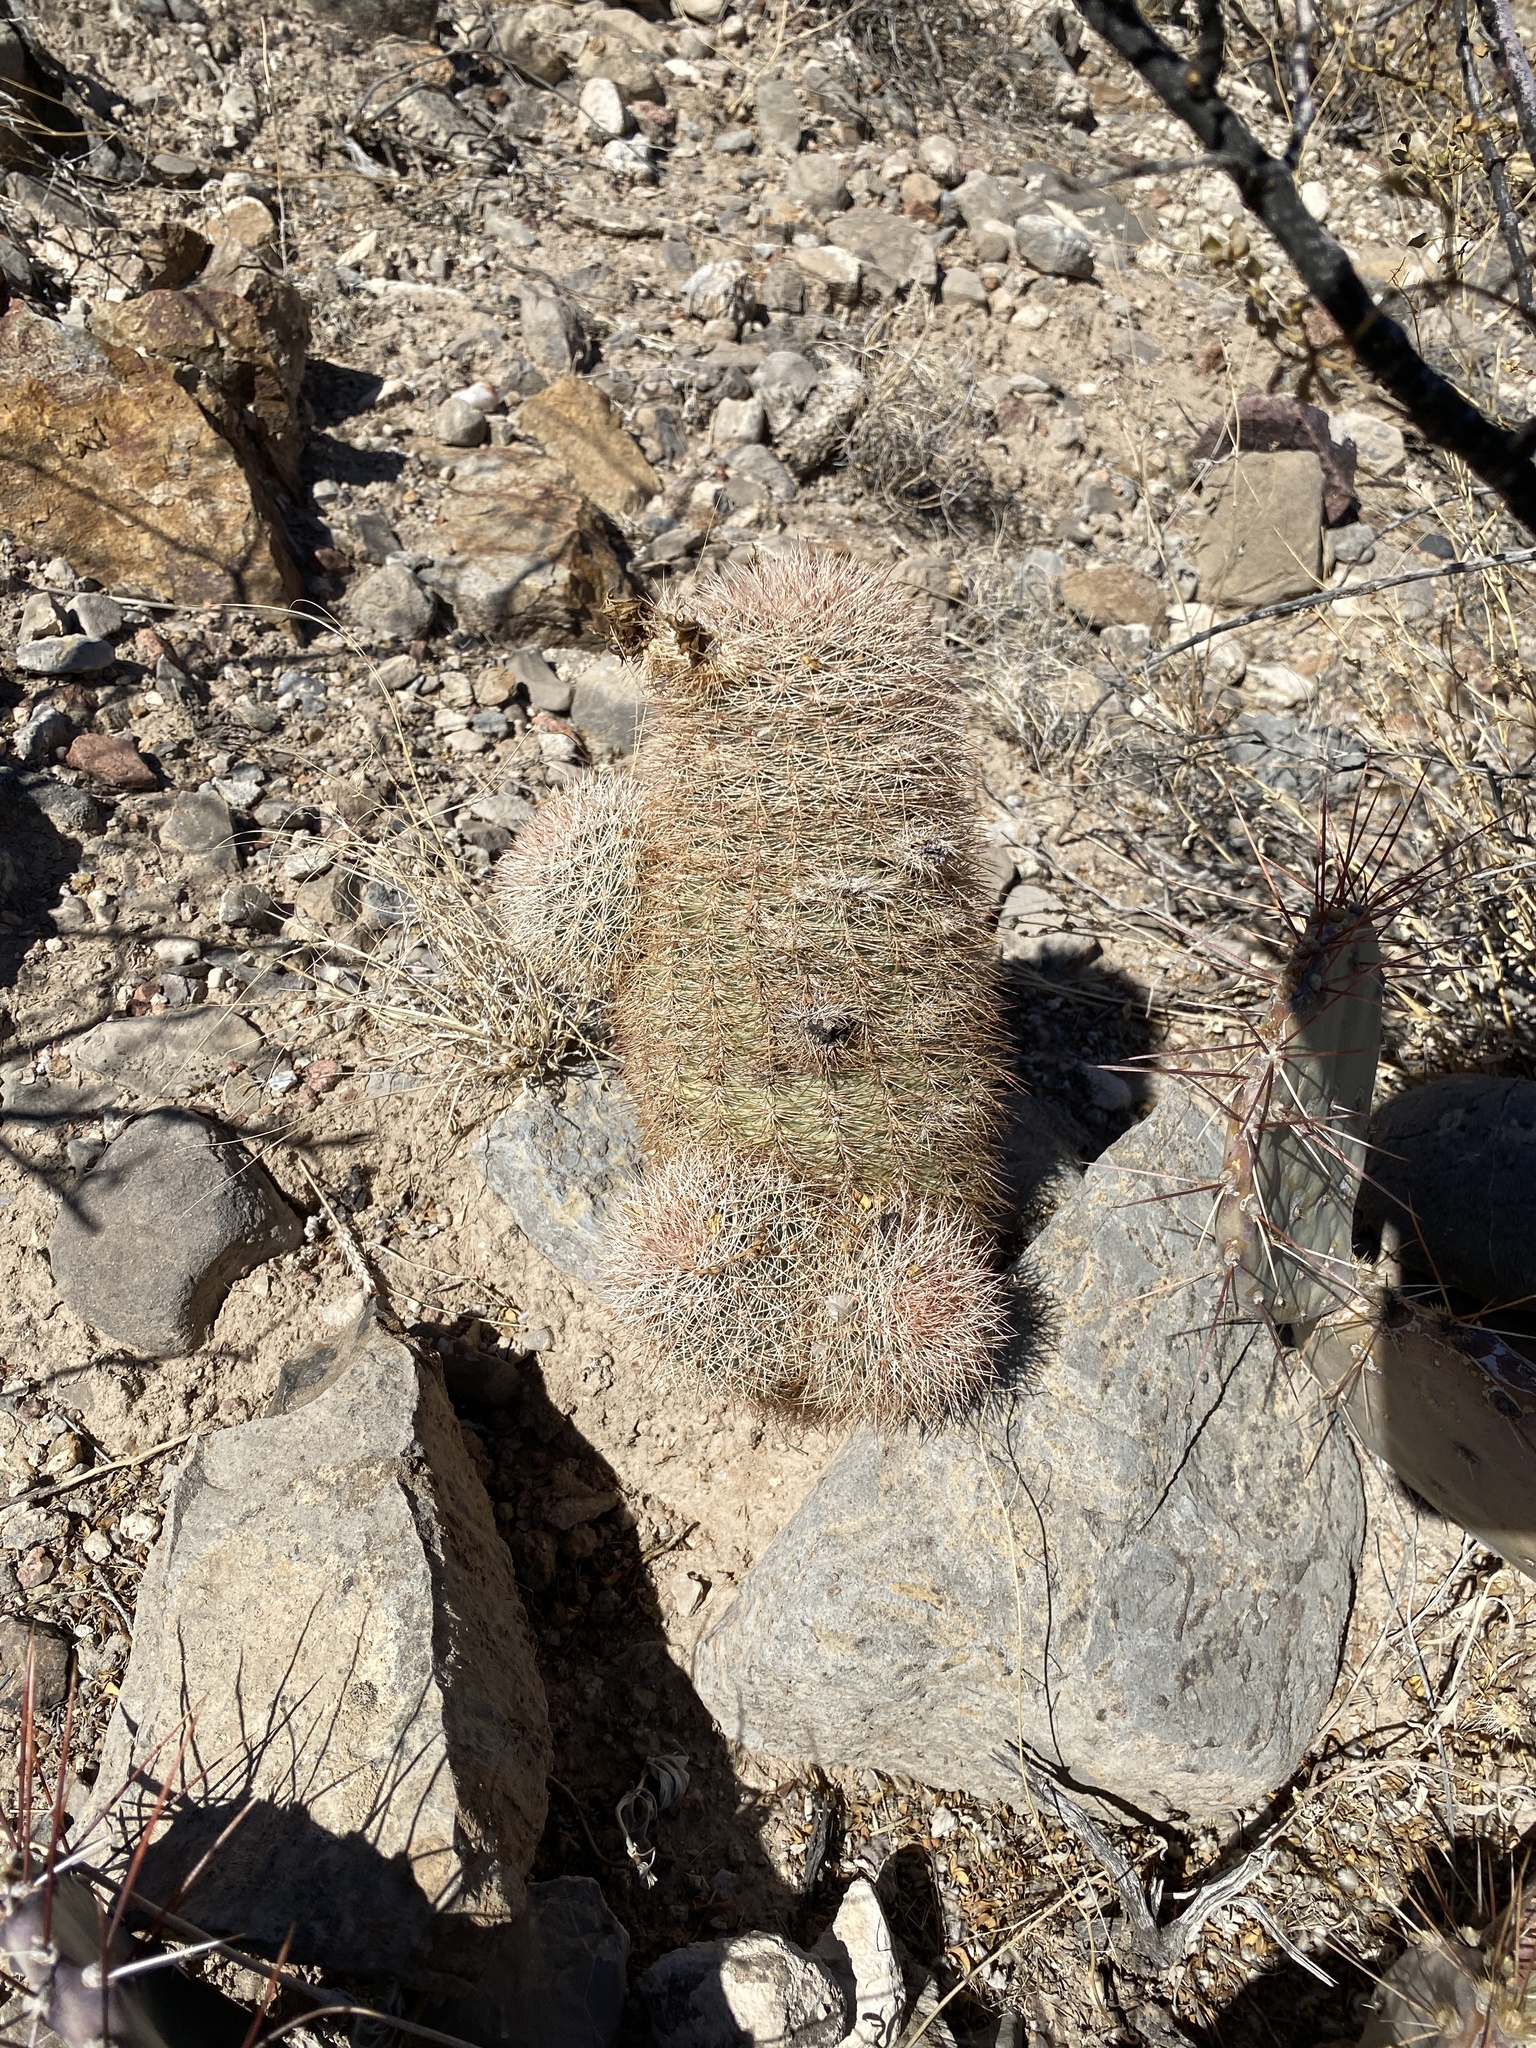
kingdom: Plantae
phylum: Tracheophyta
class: Magnoliopsida
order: Caryophyllales
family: Cactaceae
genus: Echinocereus
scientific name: Echinocereus dasyacanthus
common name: Spiny hedgehog cactus
